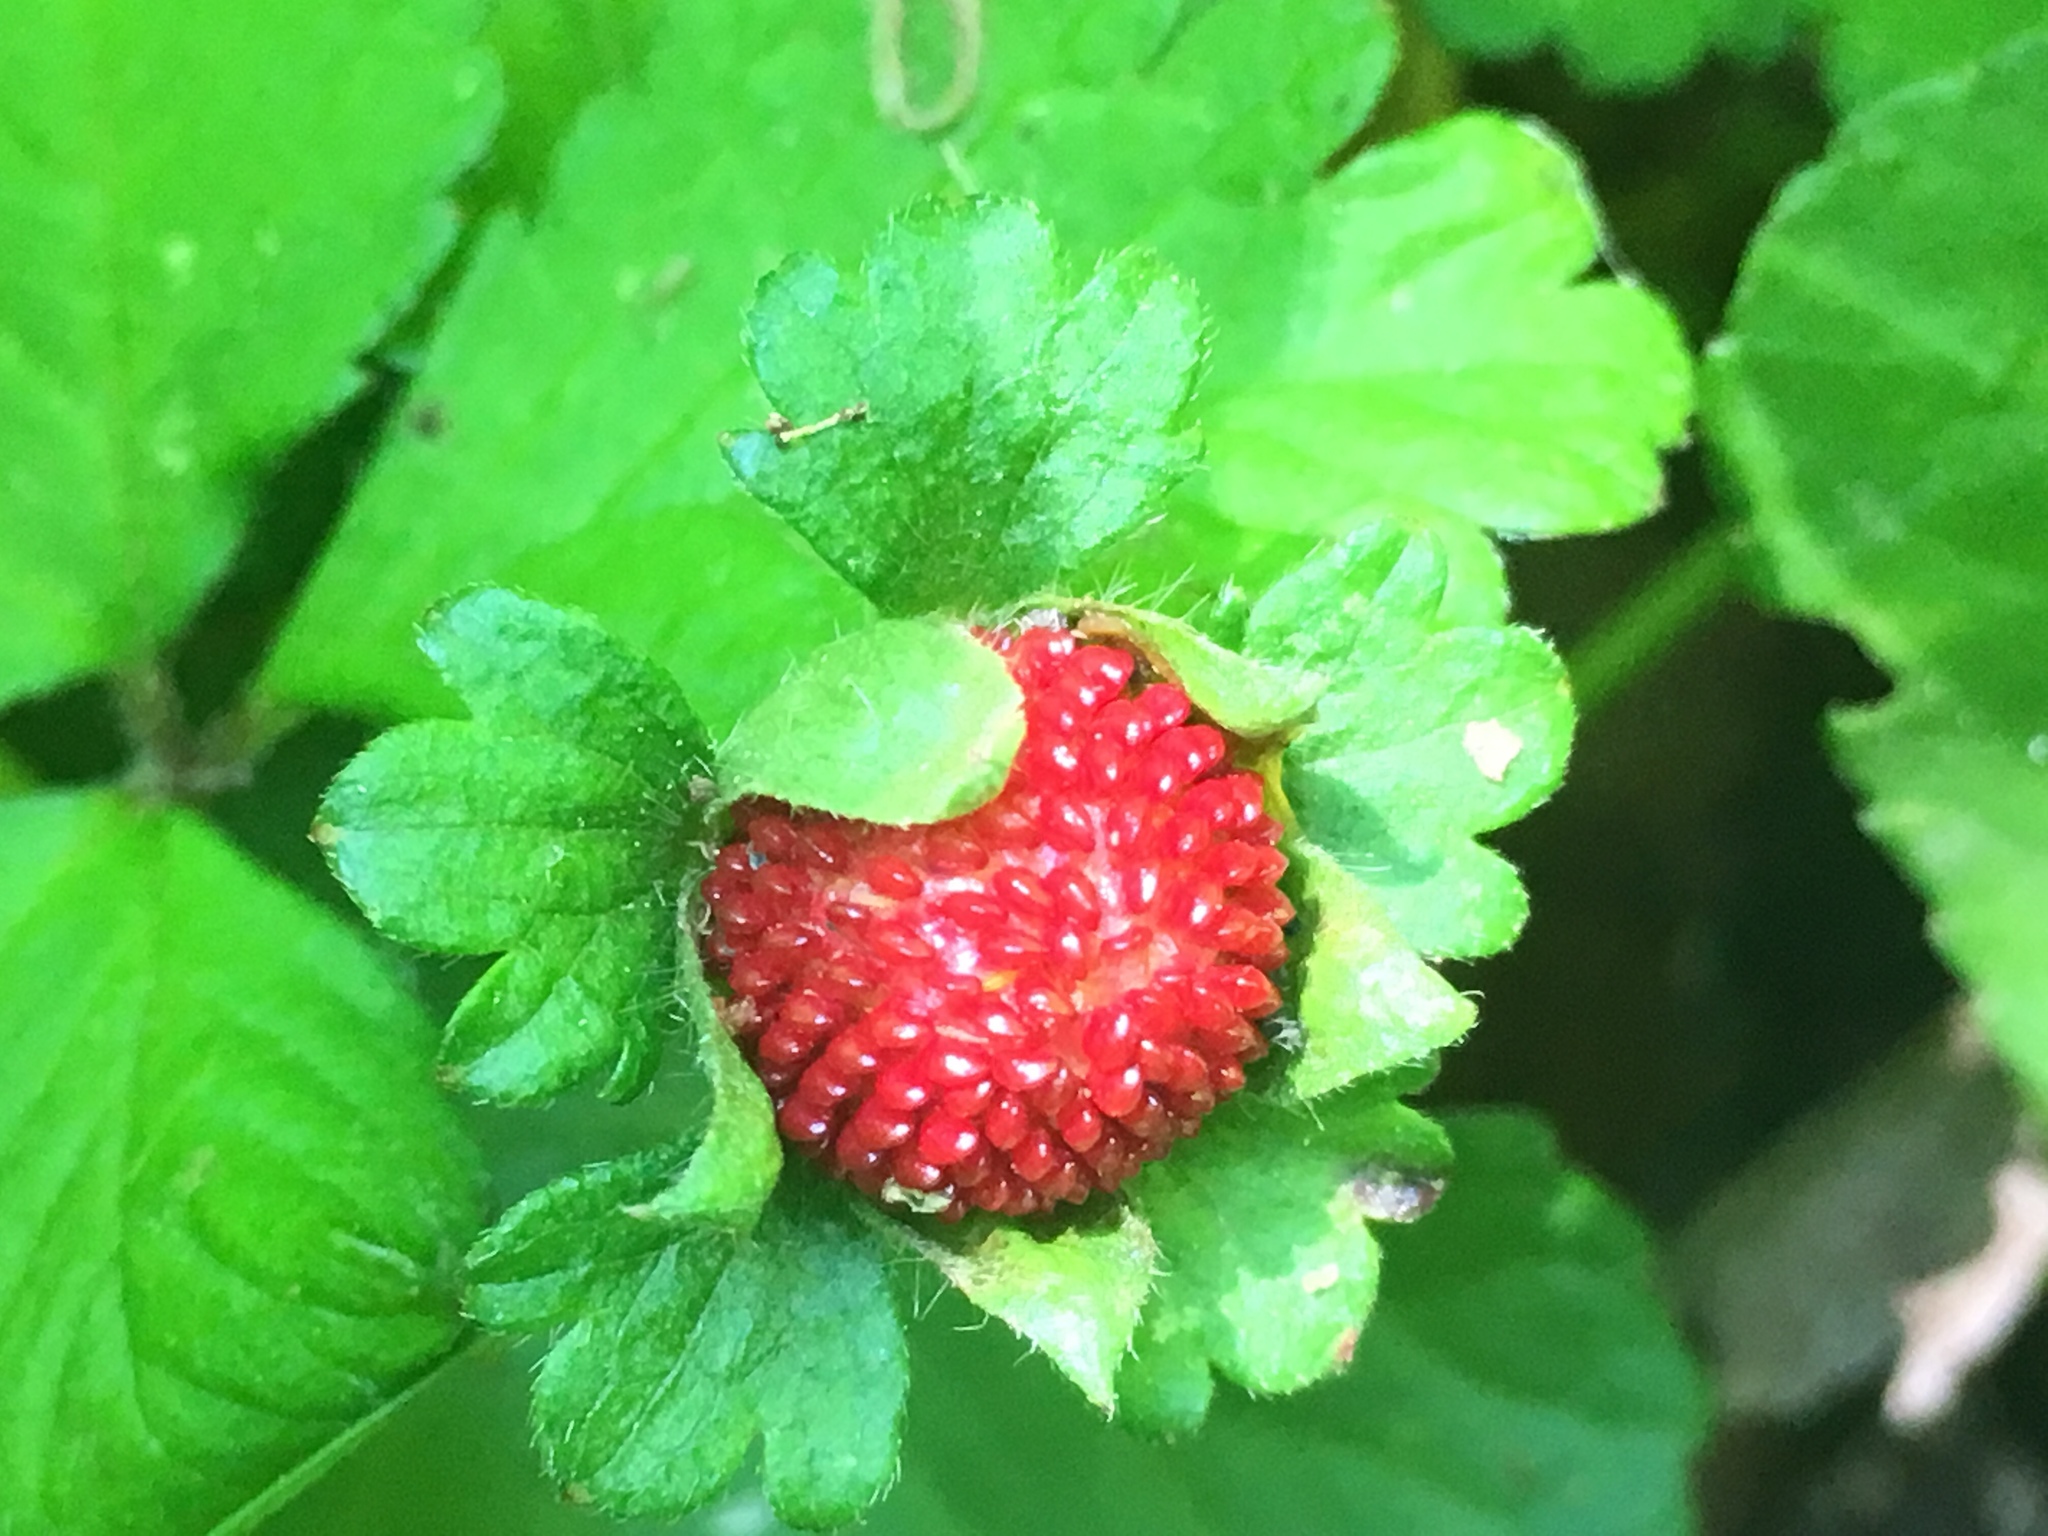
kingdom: Plantae
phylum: Tracheophyta
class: Magnoliopsida
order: Rosales
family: Rosaceae
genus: Potentilla
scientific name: Potentilla indica
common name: Yellow-flowered strawberry
